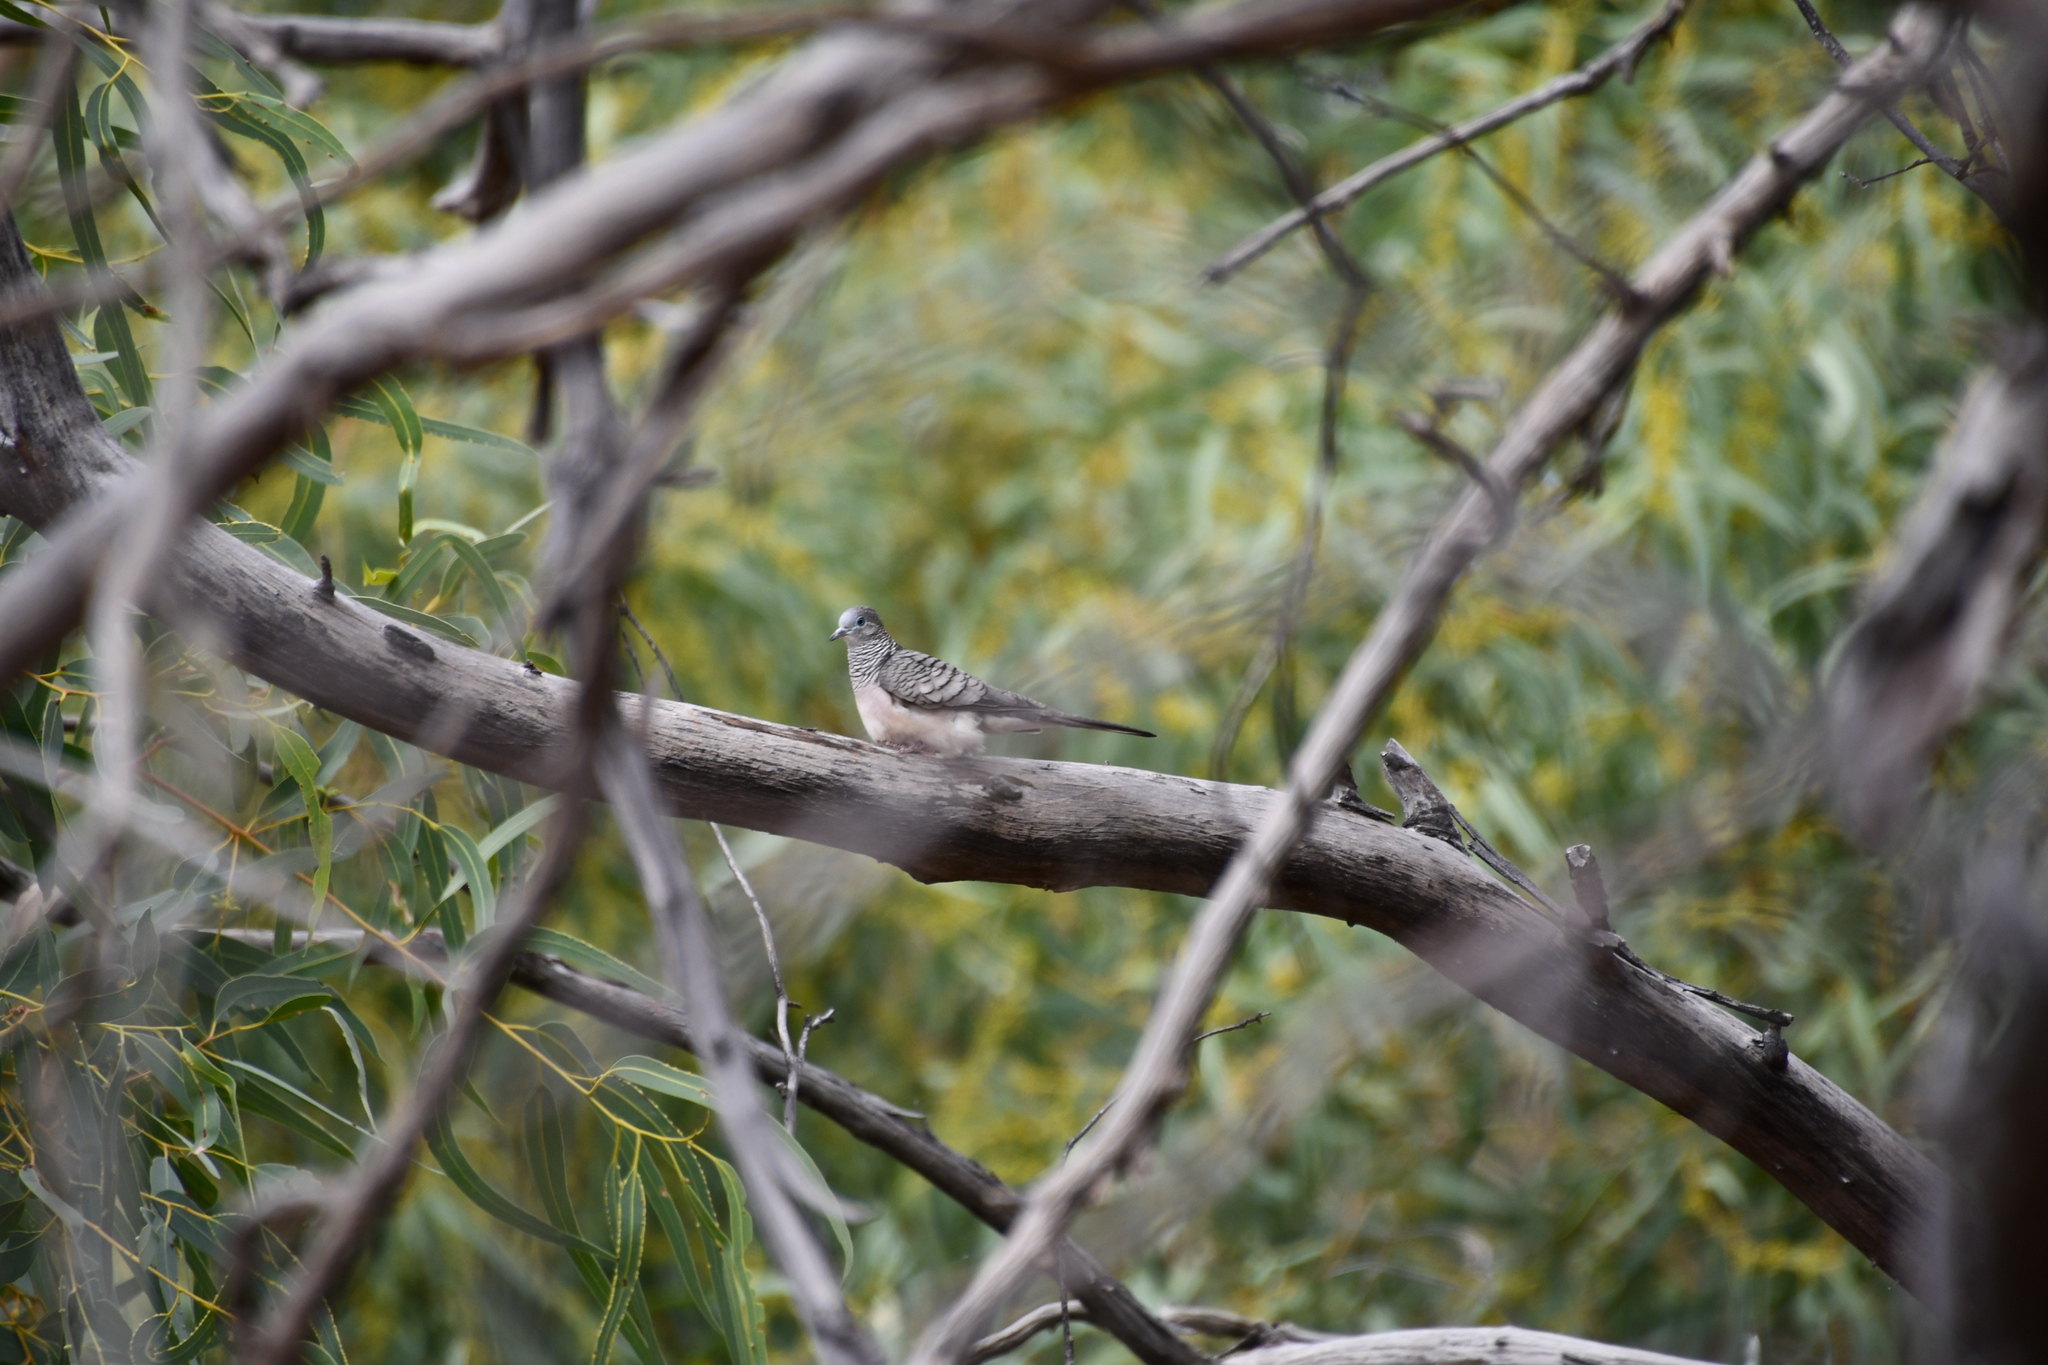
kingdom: Animalia
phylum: Chordata
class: Aves
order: Columbiformes
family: Columbidae
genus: Geopelia
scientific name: Geopelia placida
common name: Peaceful dove
